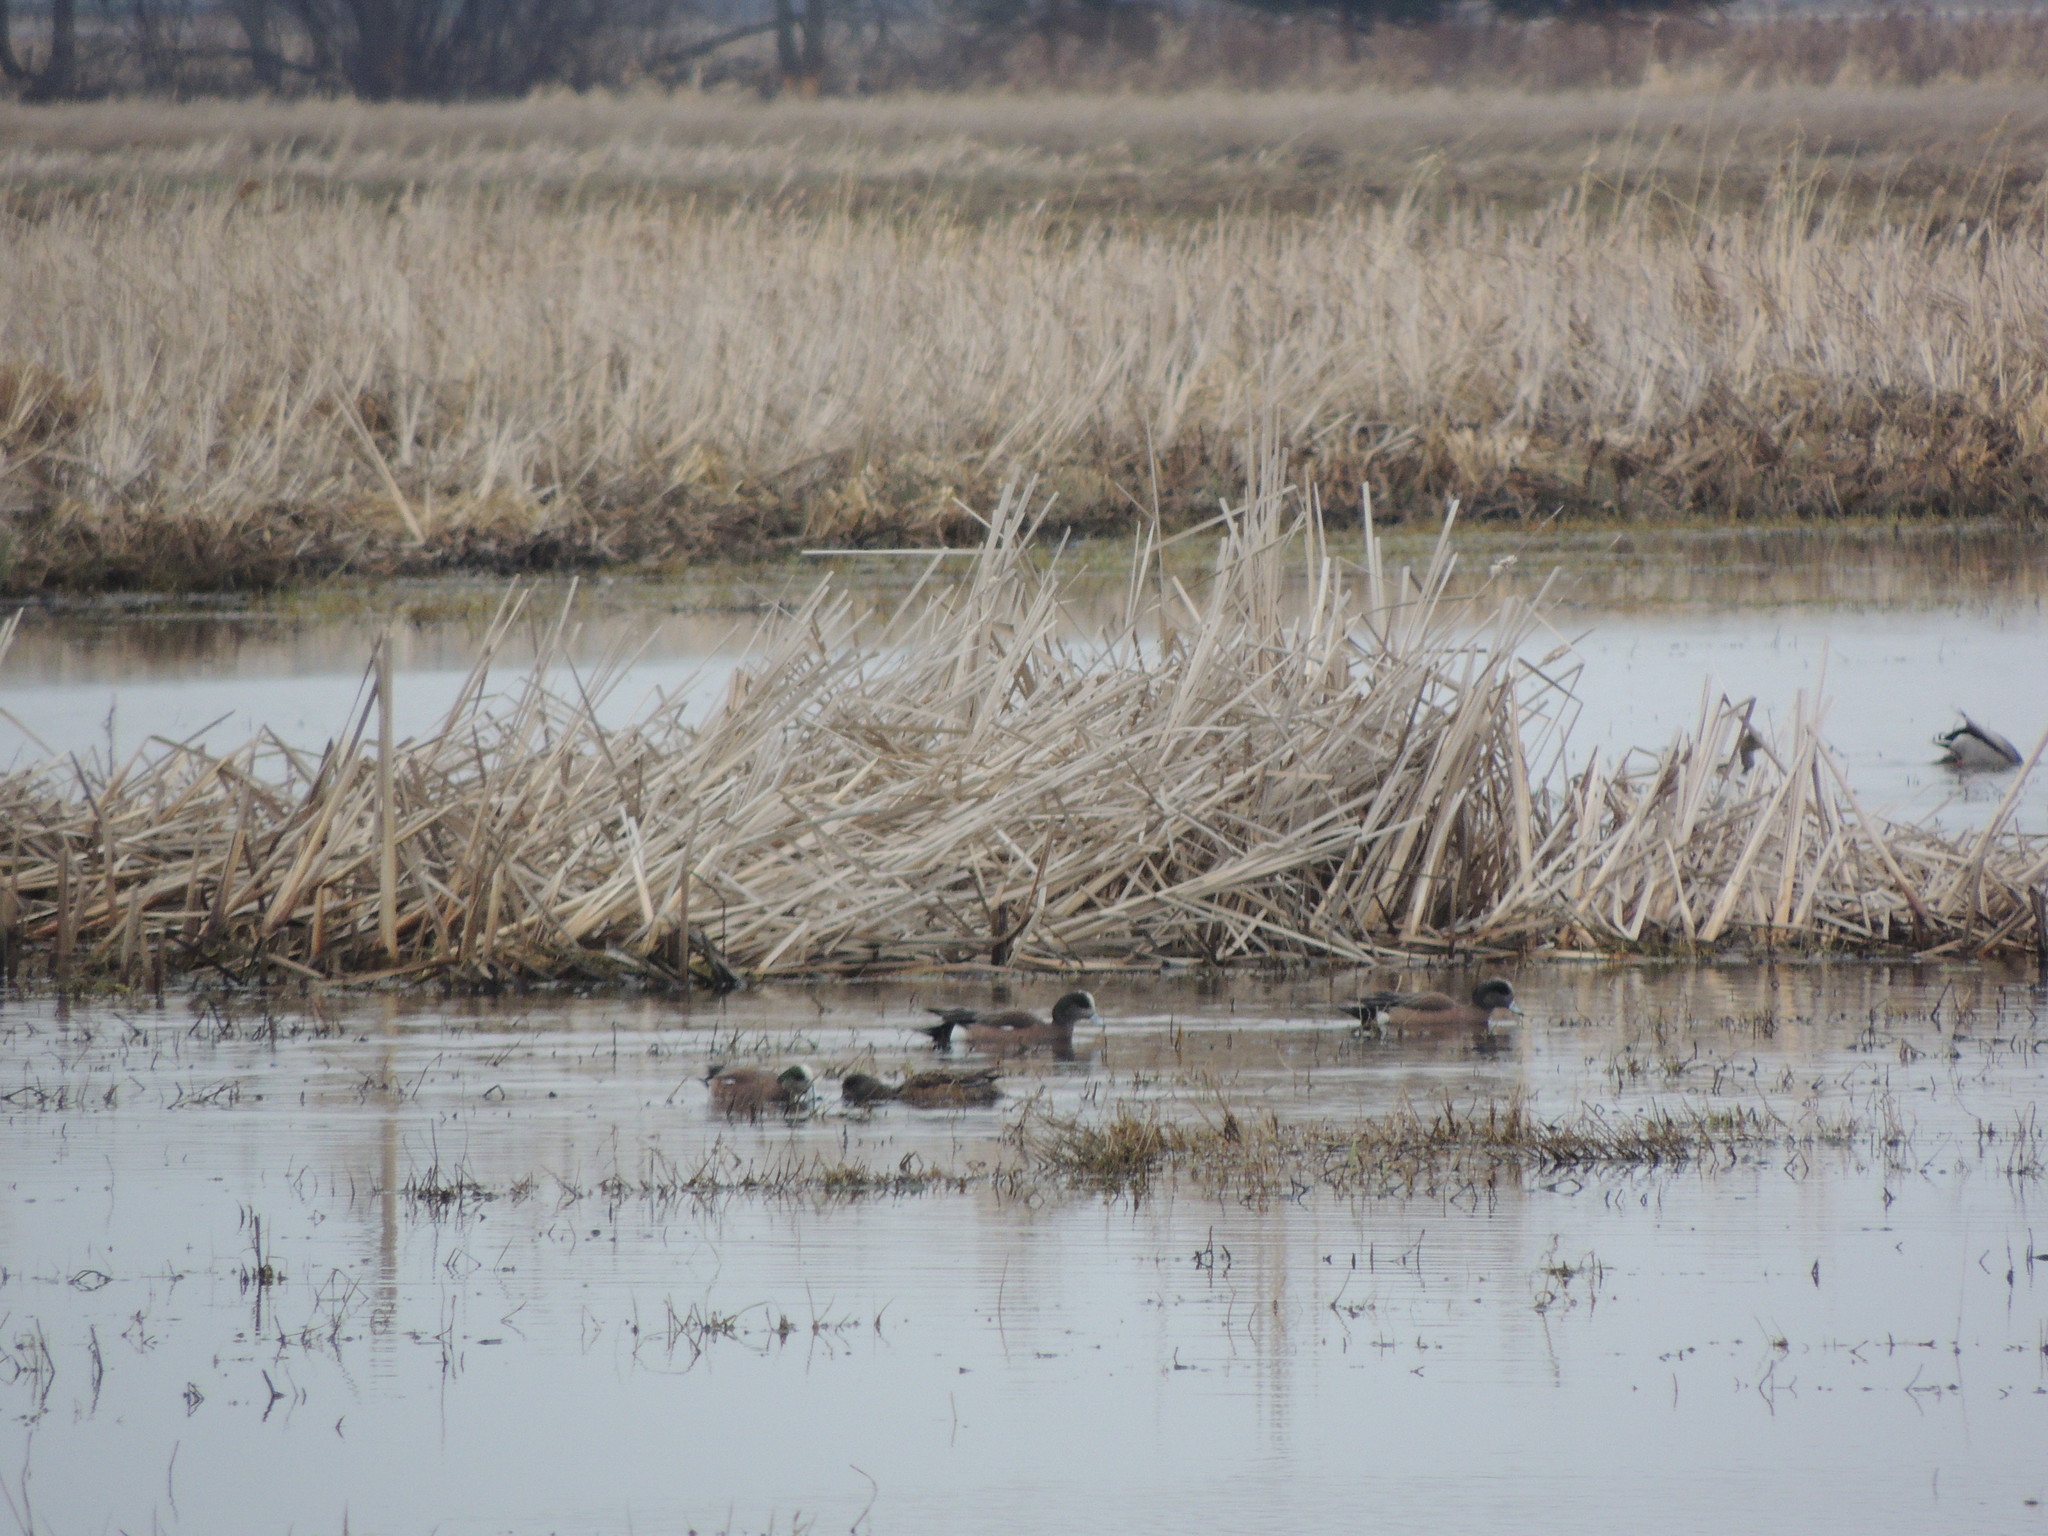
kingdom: Animalia
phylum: Chordata
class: Aves
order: Anseriformes
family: Anatidae
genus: Mareca
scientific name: Mareca americana
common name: American wigeon
